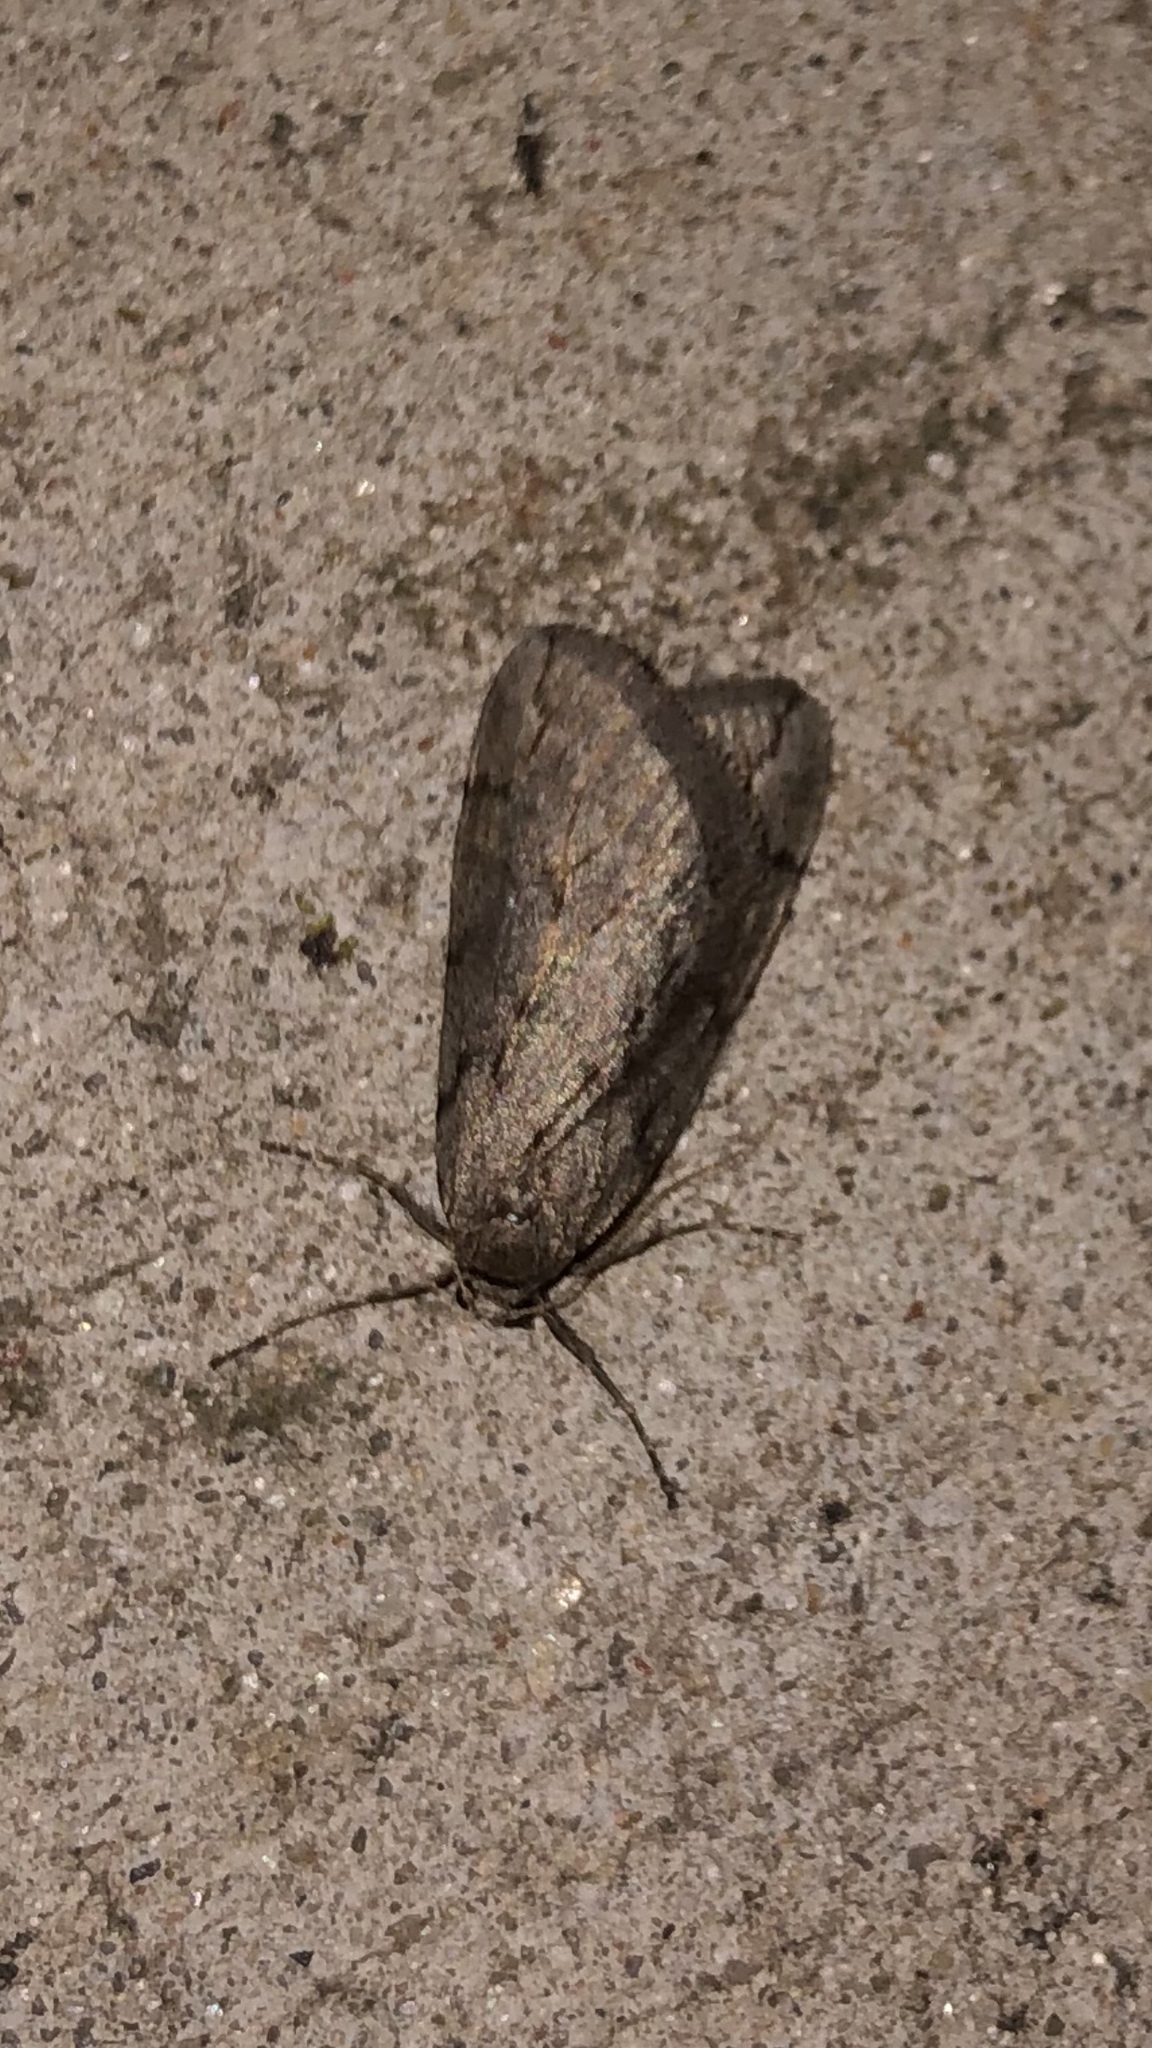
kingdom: Animalia
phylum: Arthropoda
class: Insecta
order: Lepidoptera
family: Geometridae
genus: Paleacrita
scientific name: Paleacrita vernata
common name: Spring cankerworm
